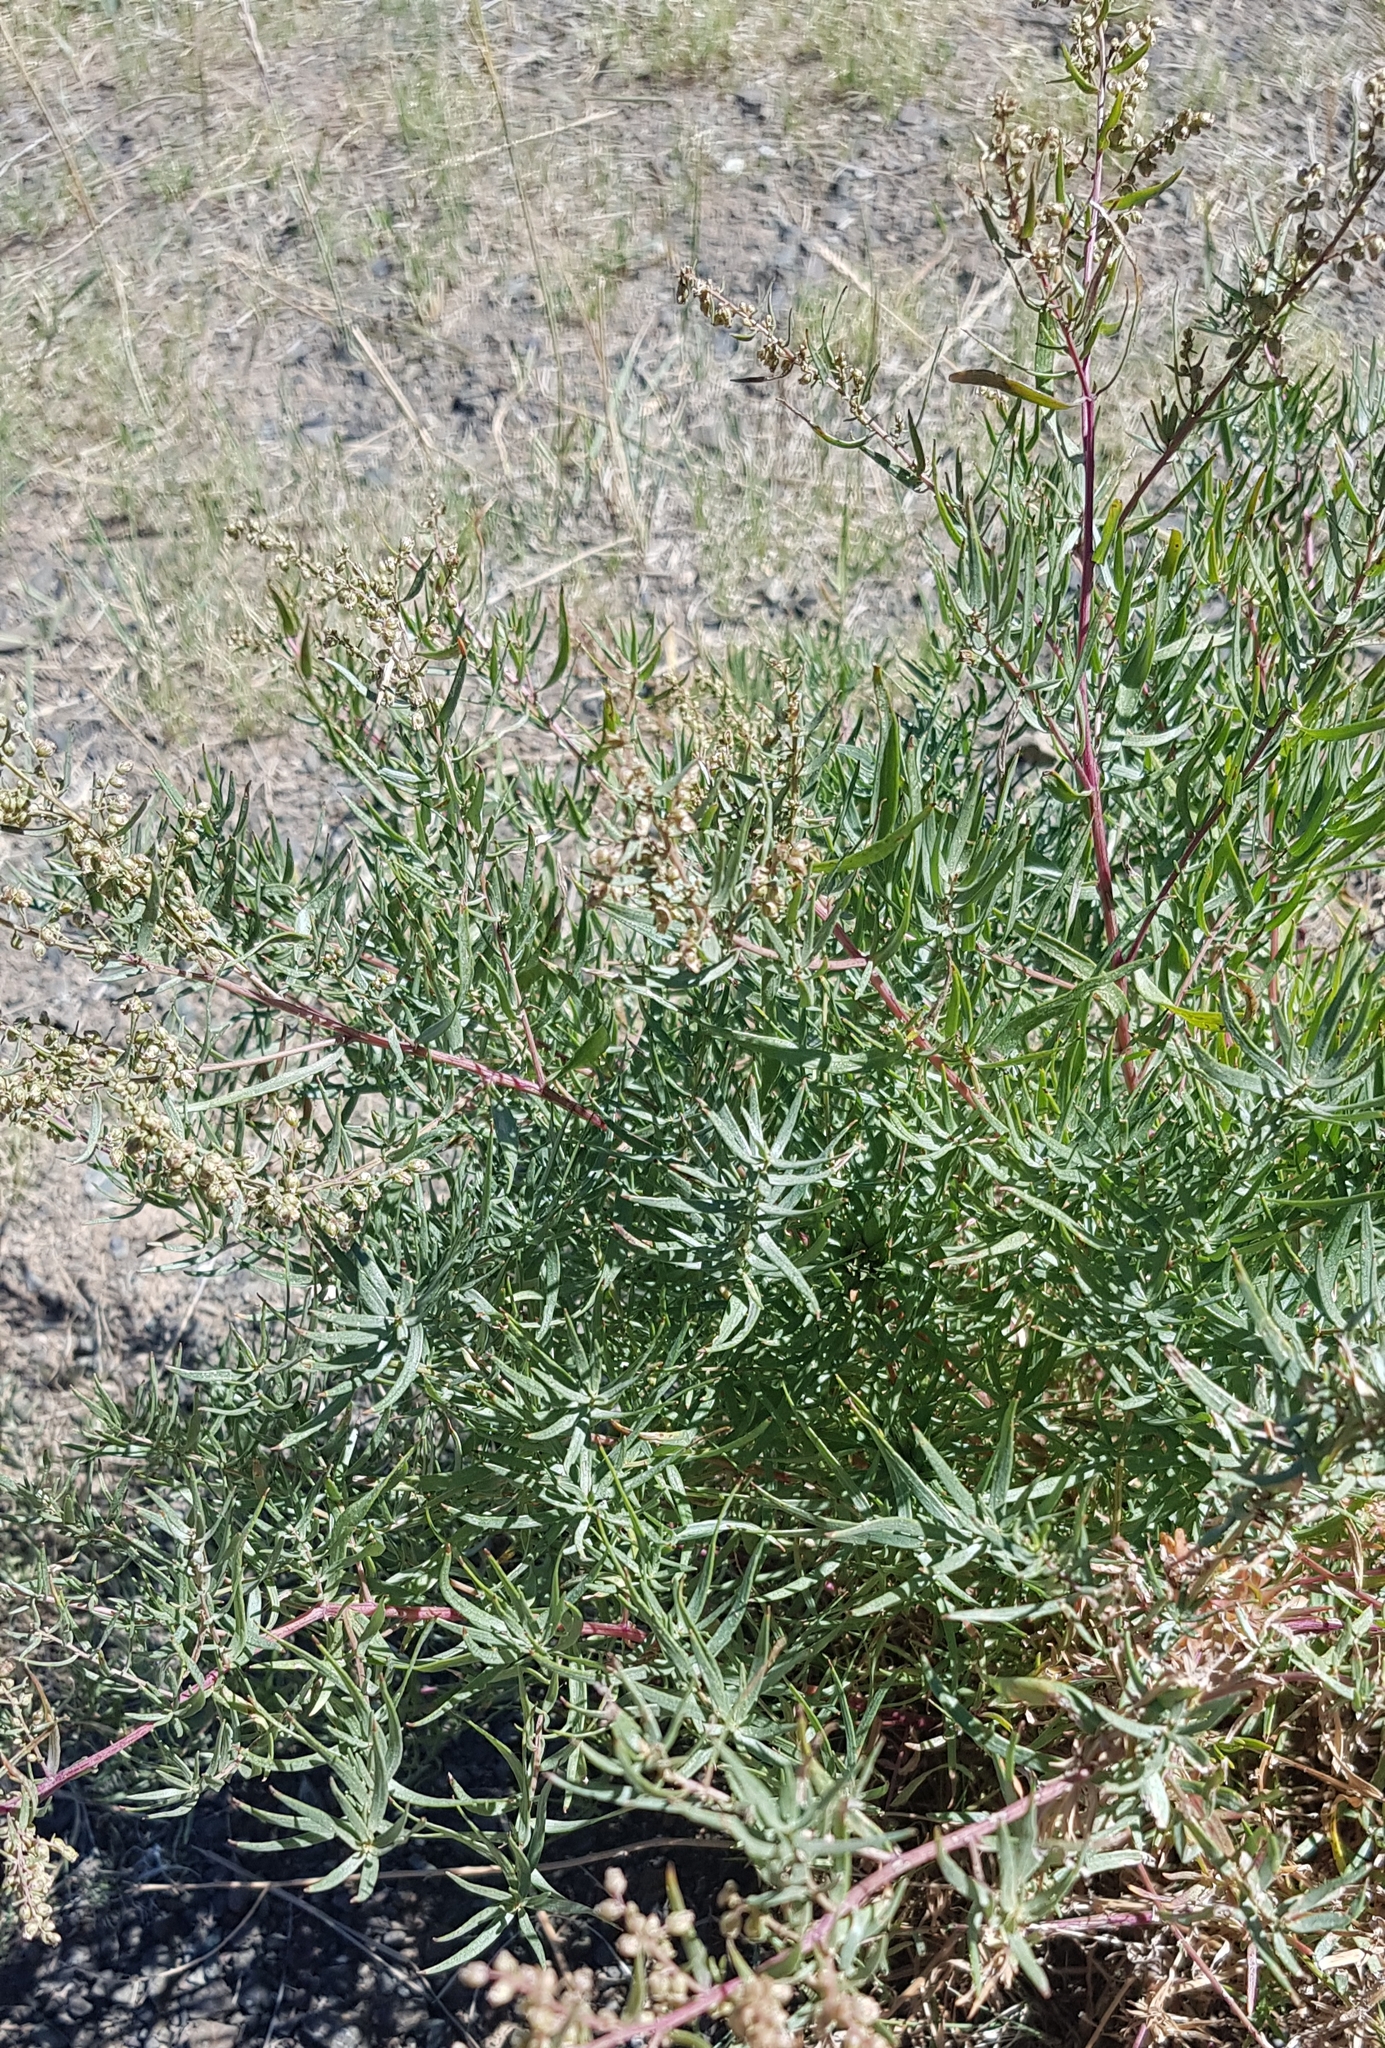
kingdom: Plantae
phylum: Tracheophyta
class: Magnoliopsida
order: Asterales
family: Asteraceae
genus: Artemisia
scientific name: Artemisia glauca
